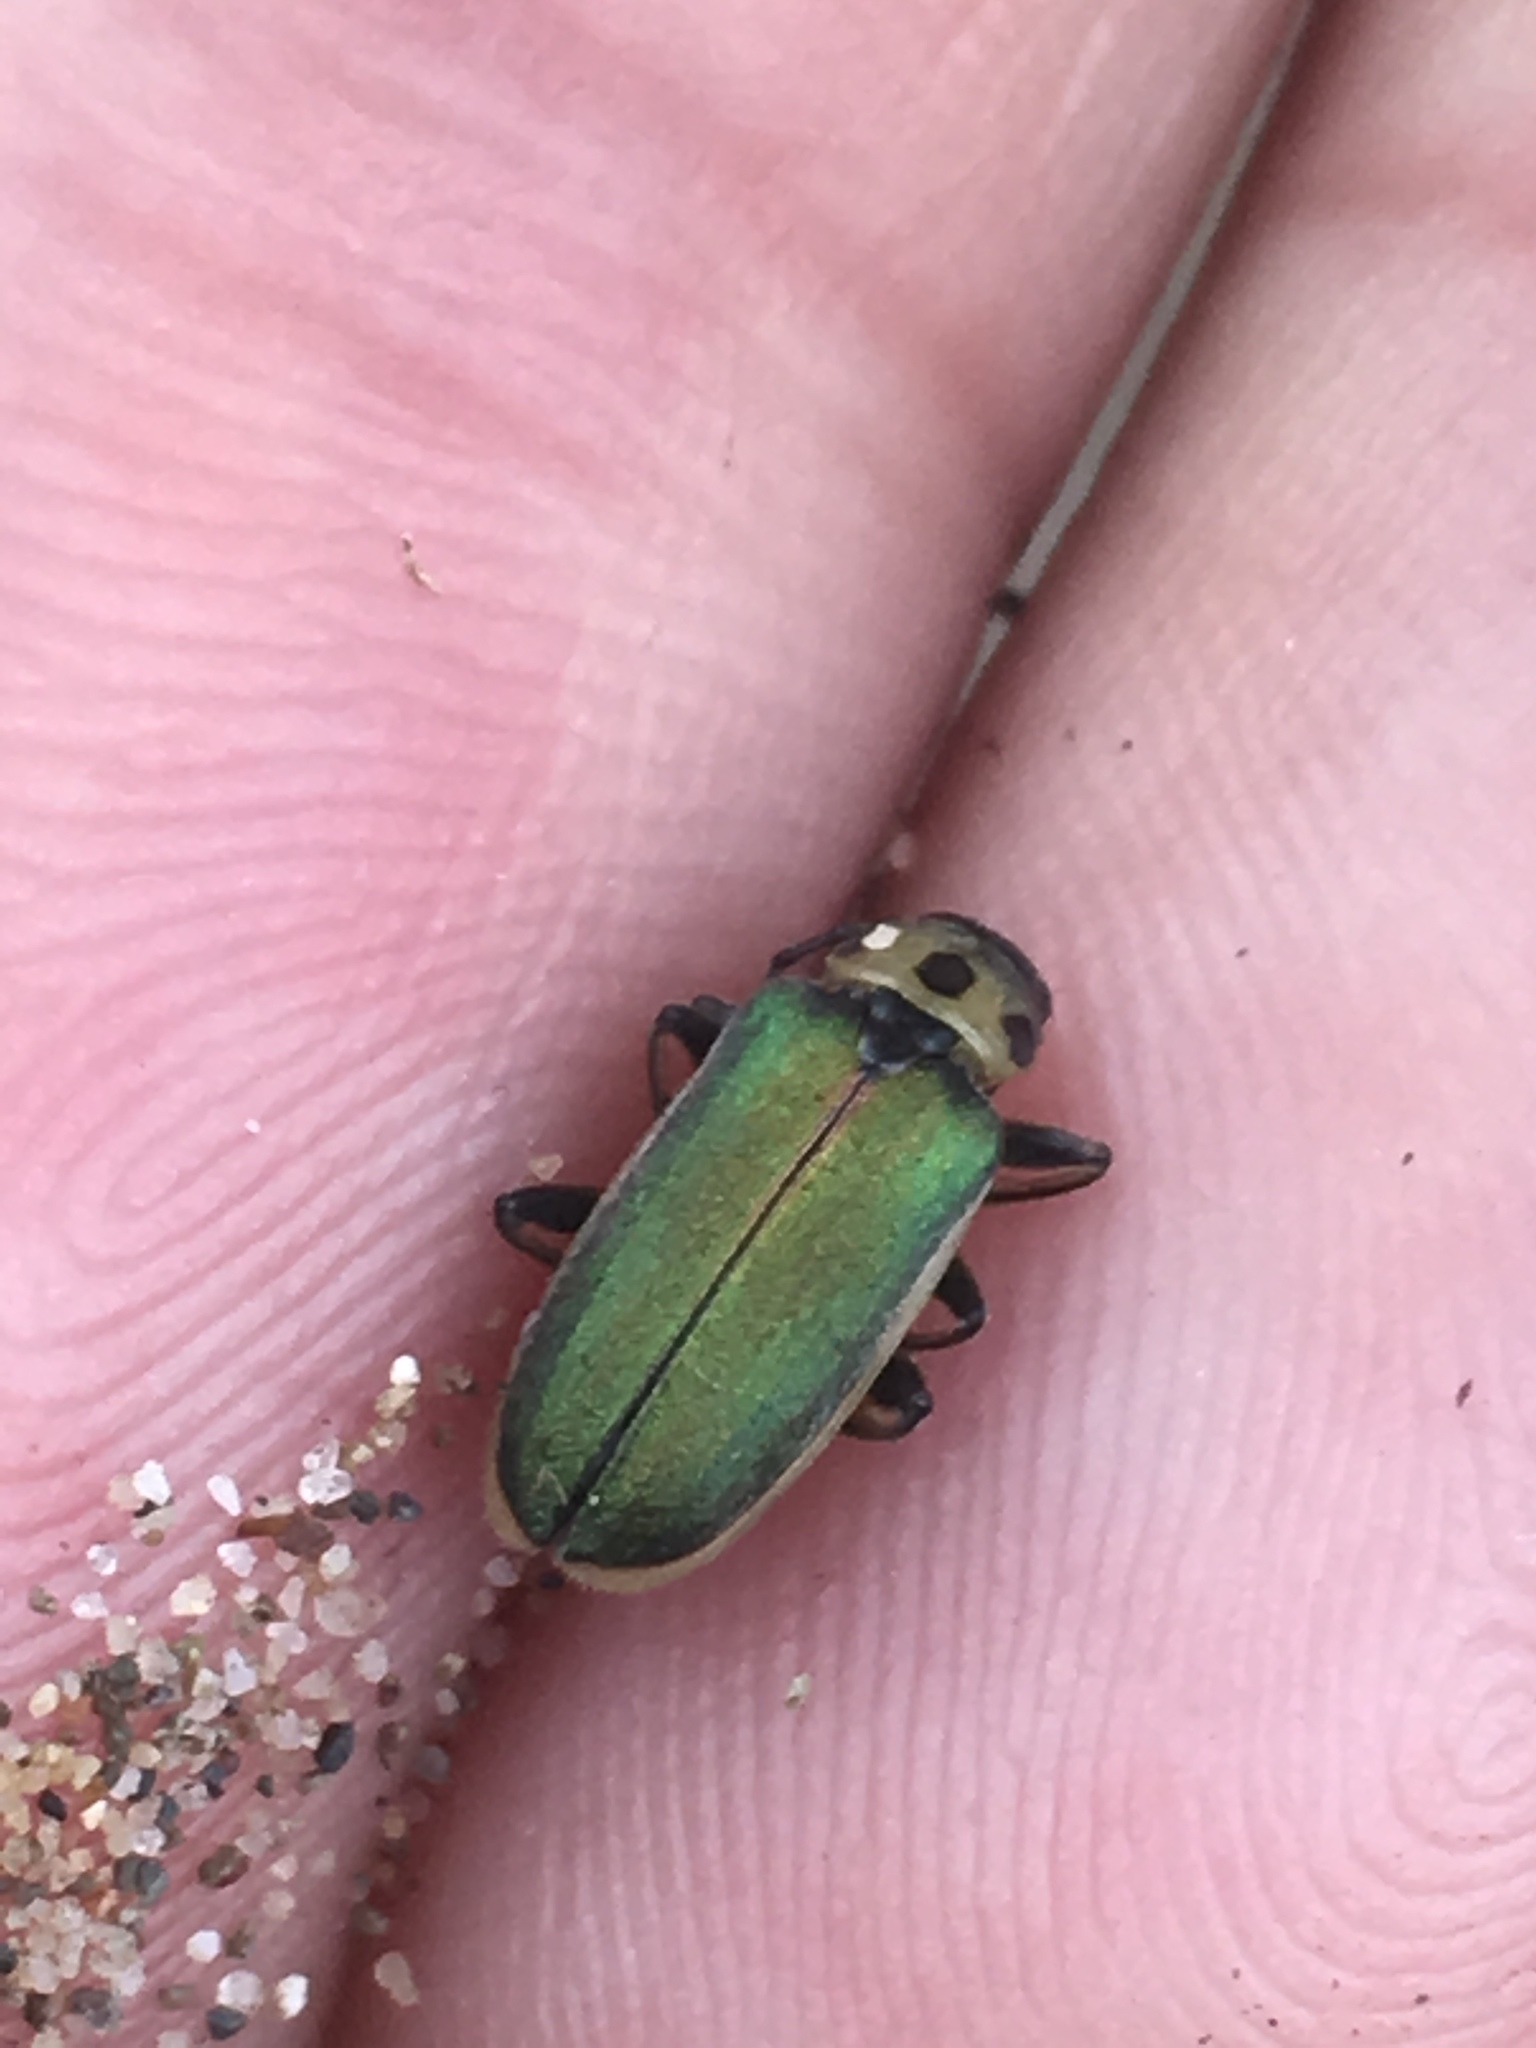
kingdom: Animalia
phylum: Arthropoda
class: Insecta
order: Coleoptera
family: Chrysomelidae
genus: Trirhabda
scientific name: Trirhabda flavolimbata
